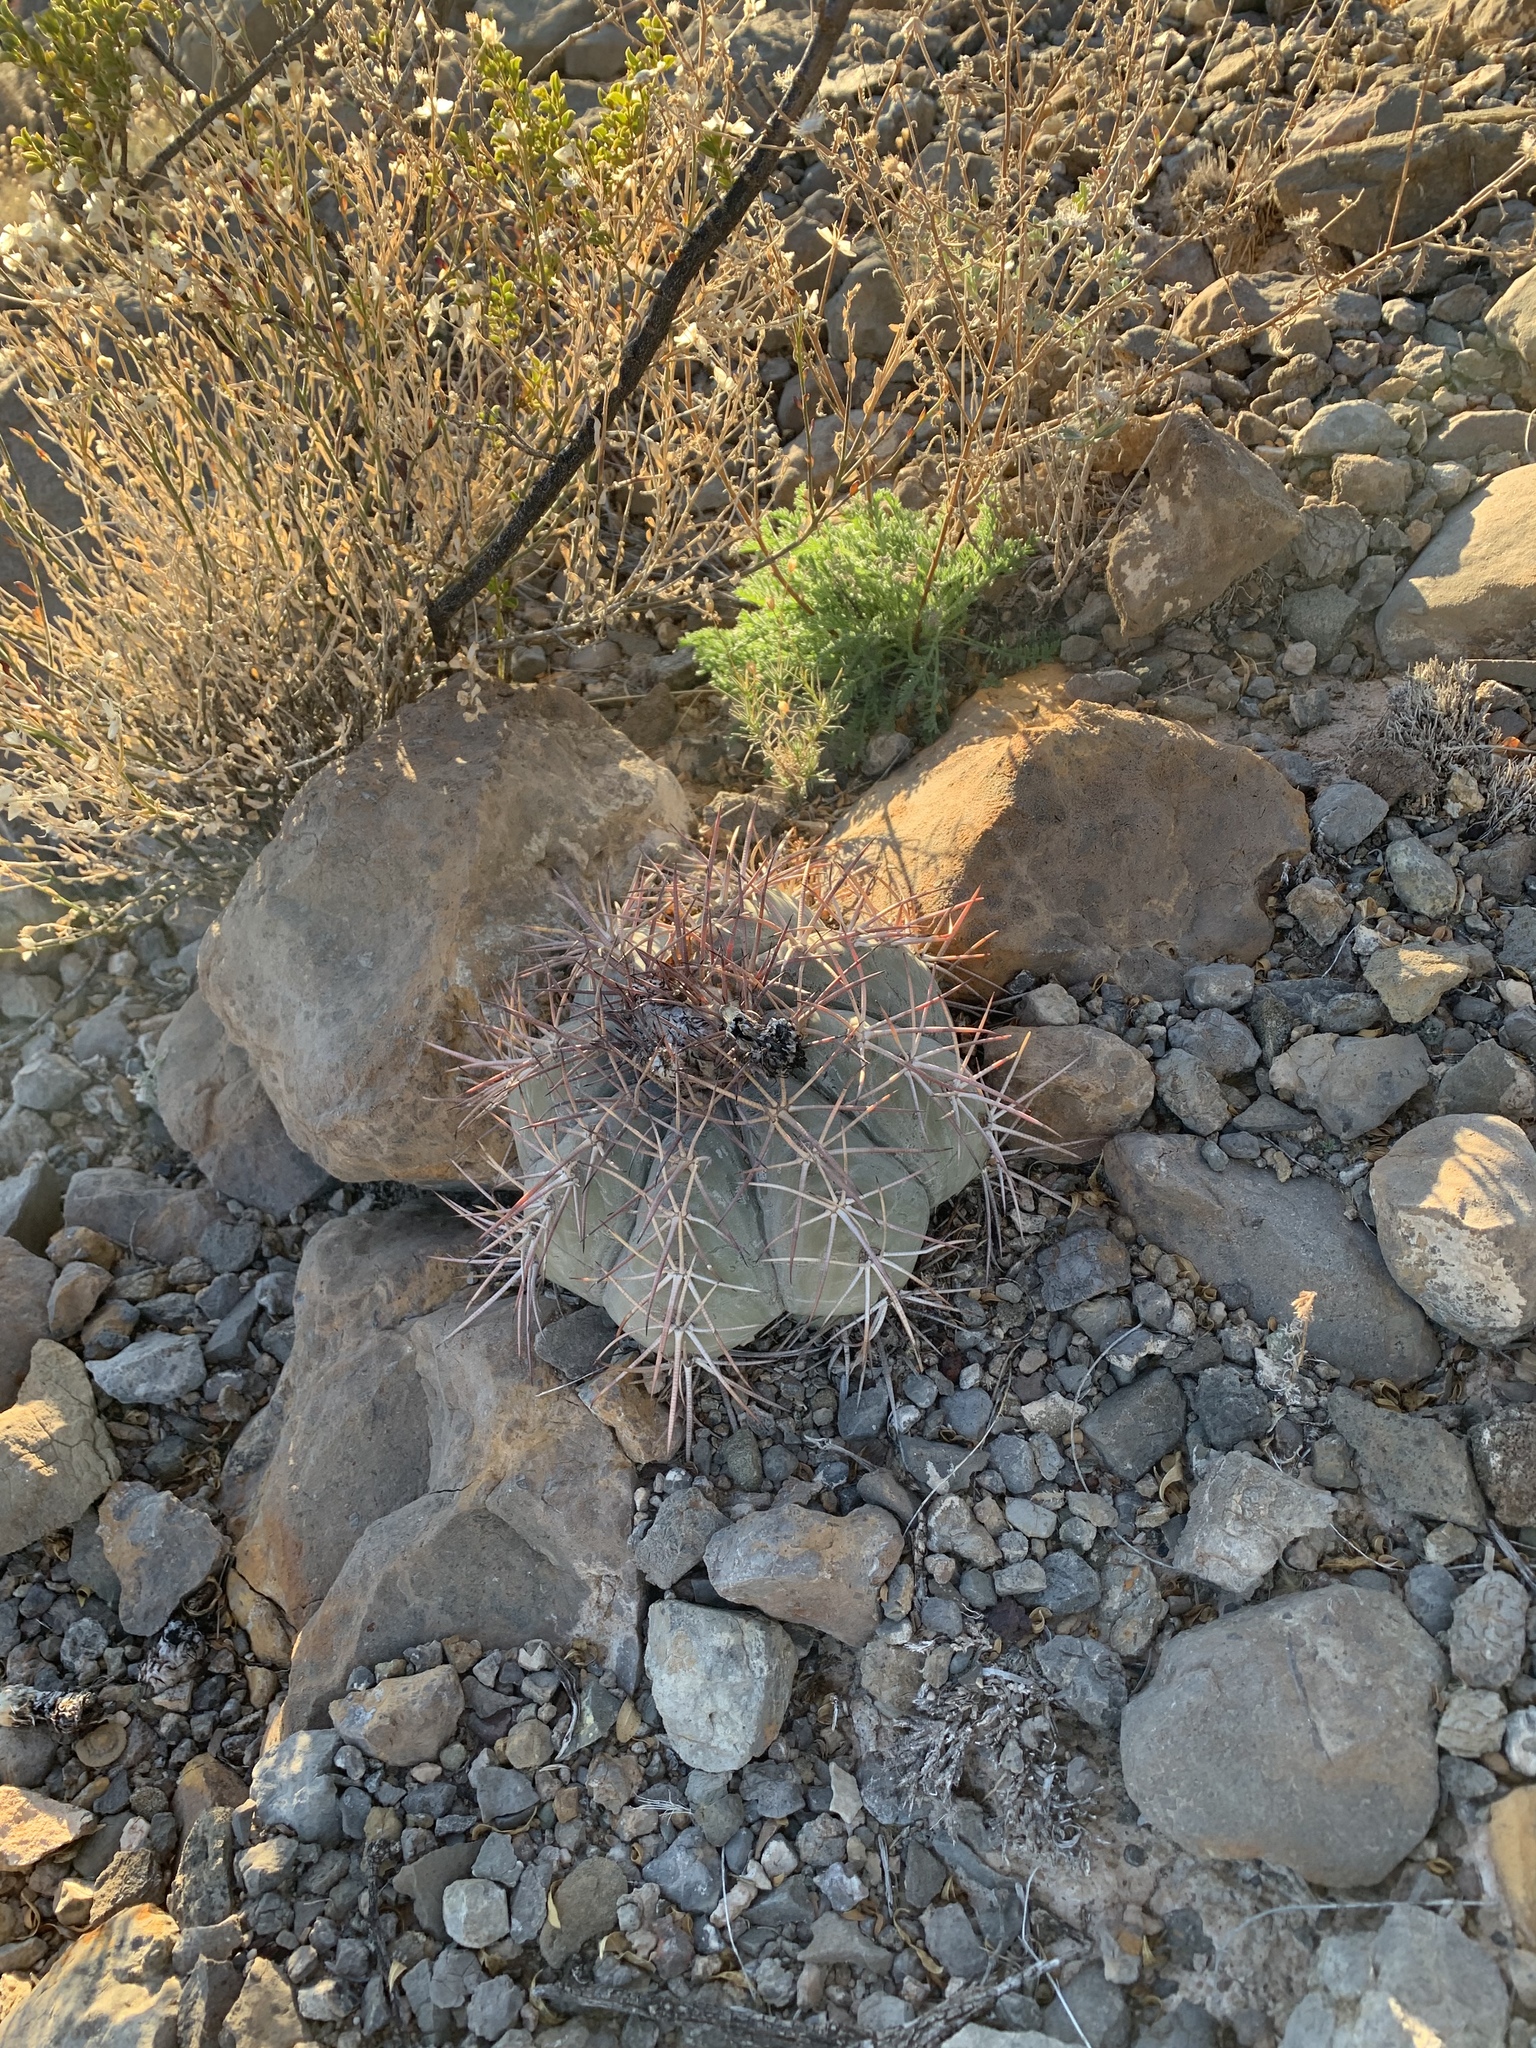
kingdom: Plantae
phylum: Tracheophyta
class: Magnoliopsida
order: Caryophyllales
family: Cactaceae
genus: Echinocactus
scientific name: Echinocactus horizonthalonius
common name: Devilshead
